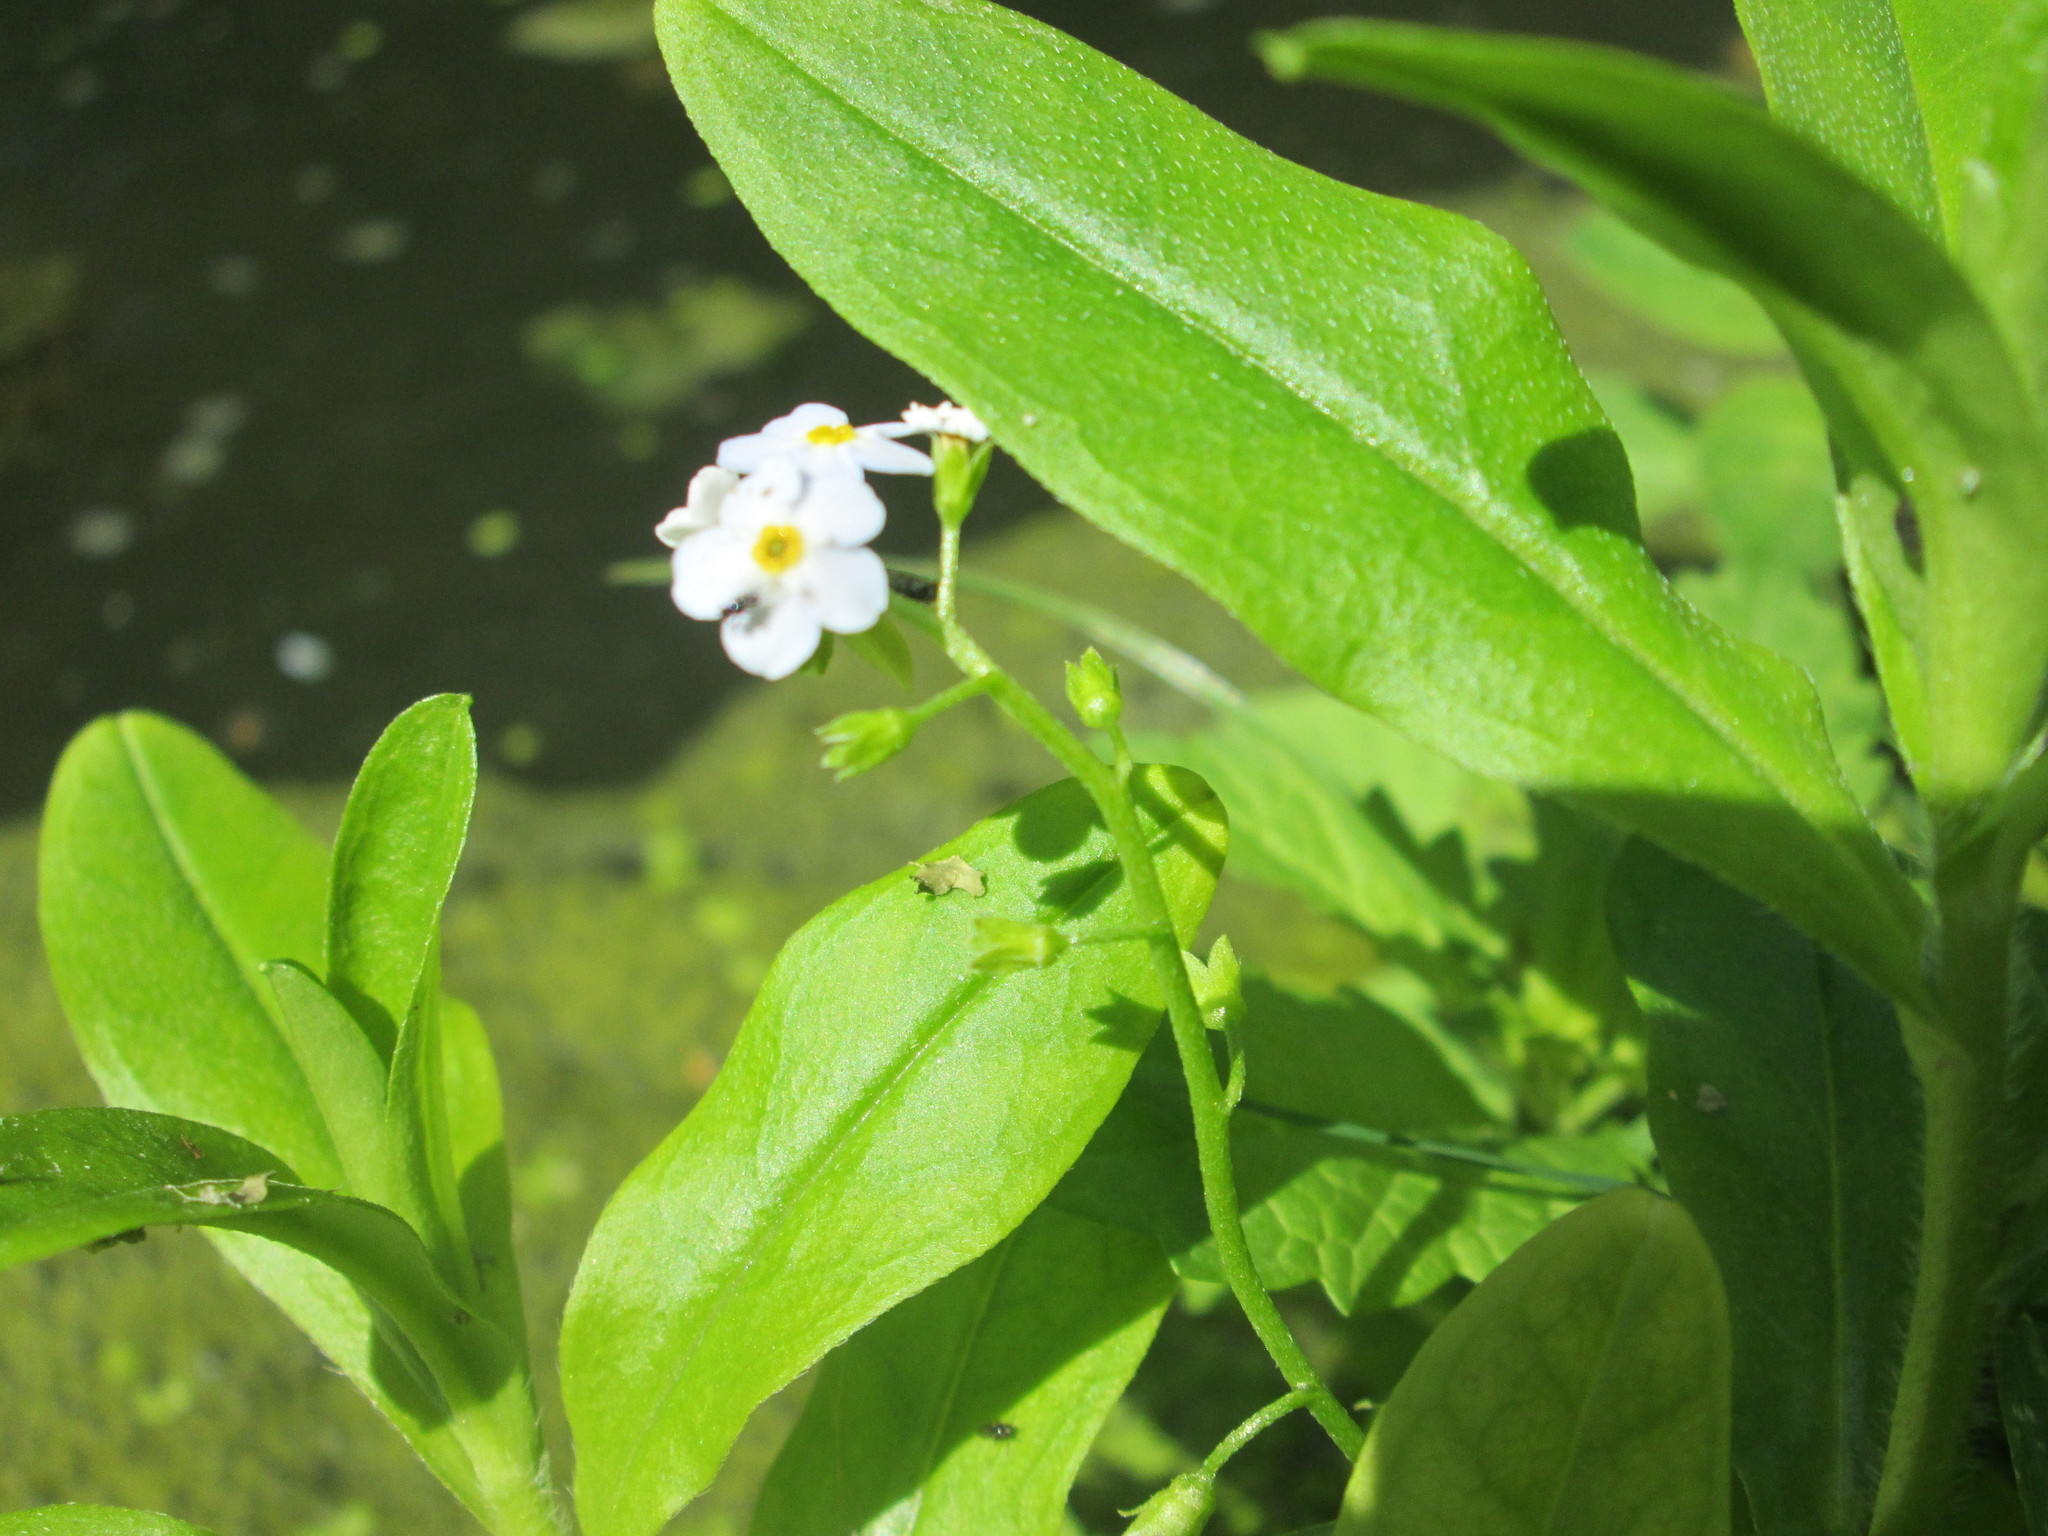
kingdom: Plantae
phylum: Tracheophyta
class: Magnoliopsida
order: Boraginales
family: Boraginaceae
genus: Myosotis
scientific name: Myosotis scorpioides
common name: Water forget-me-not
